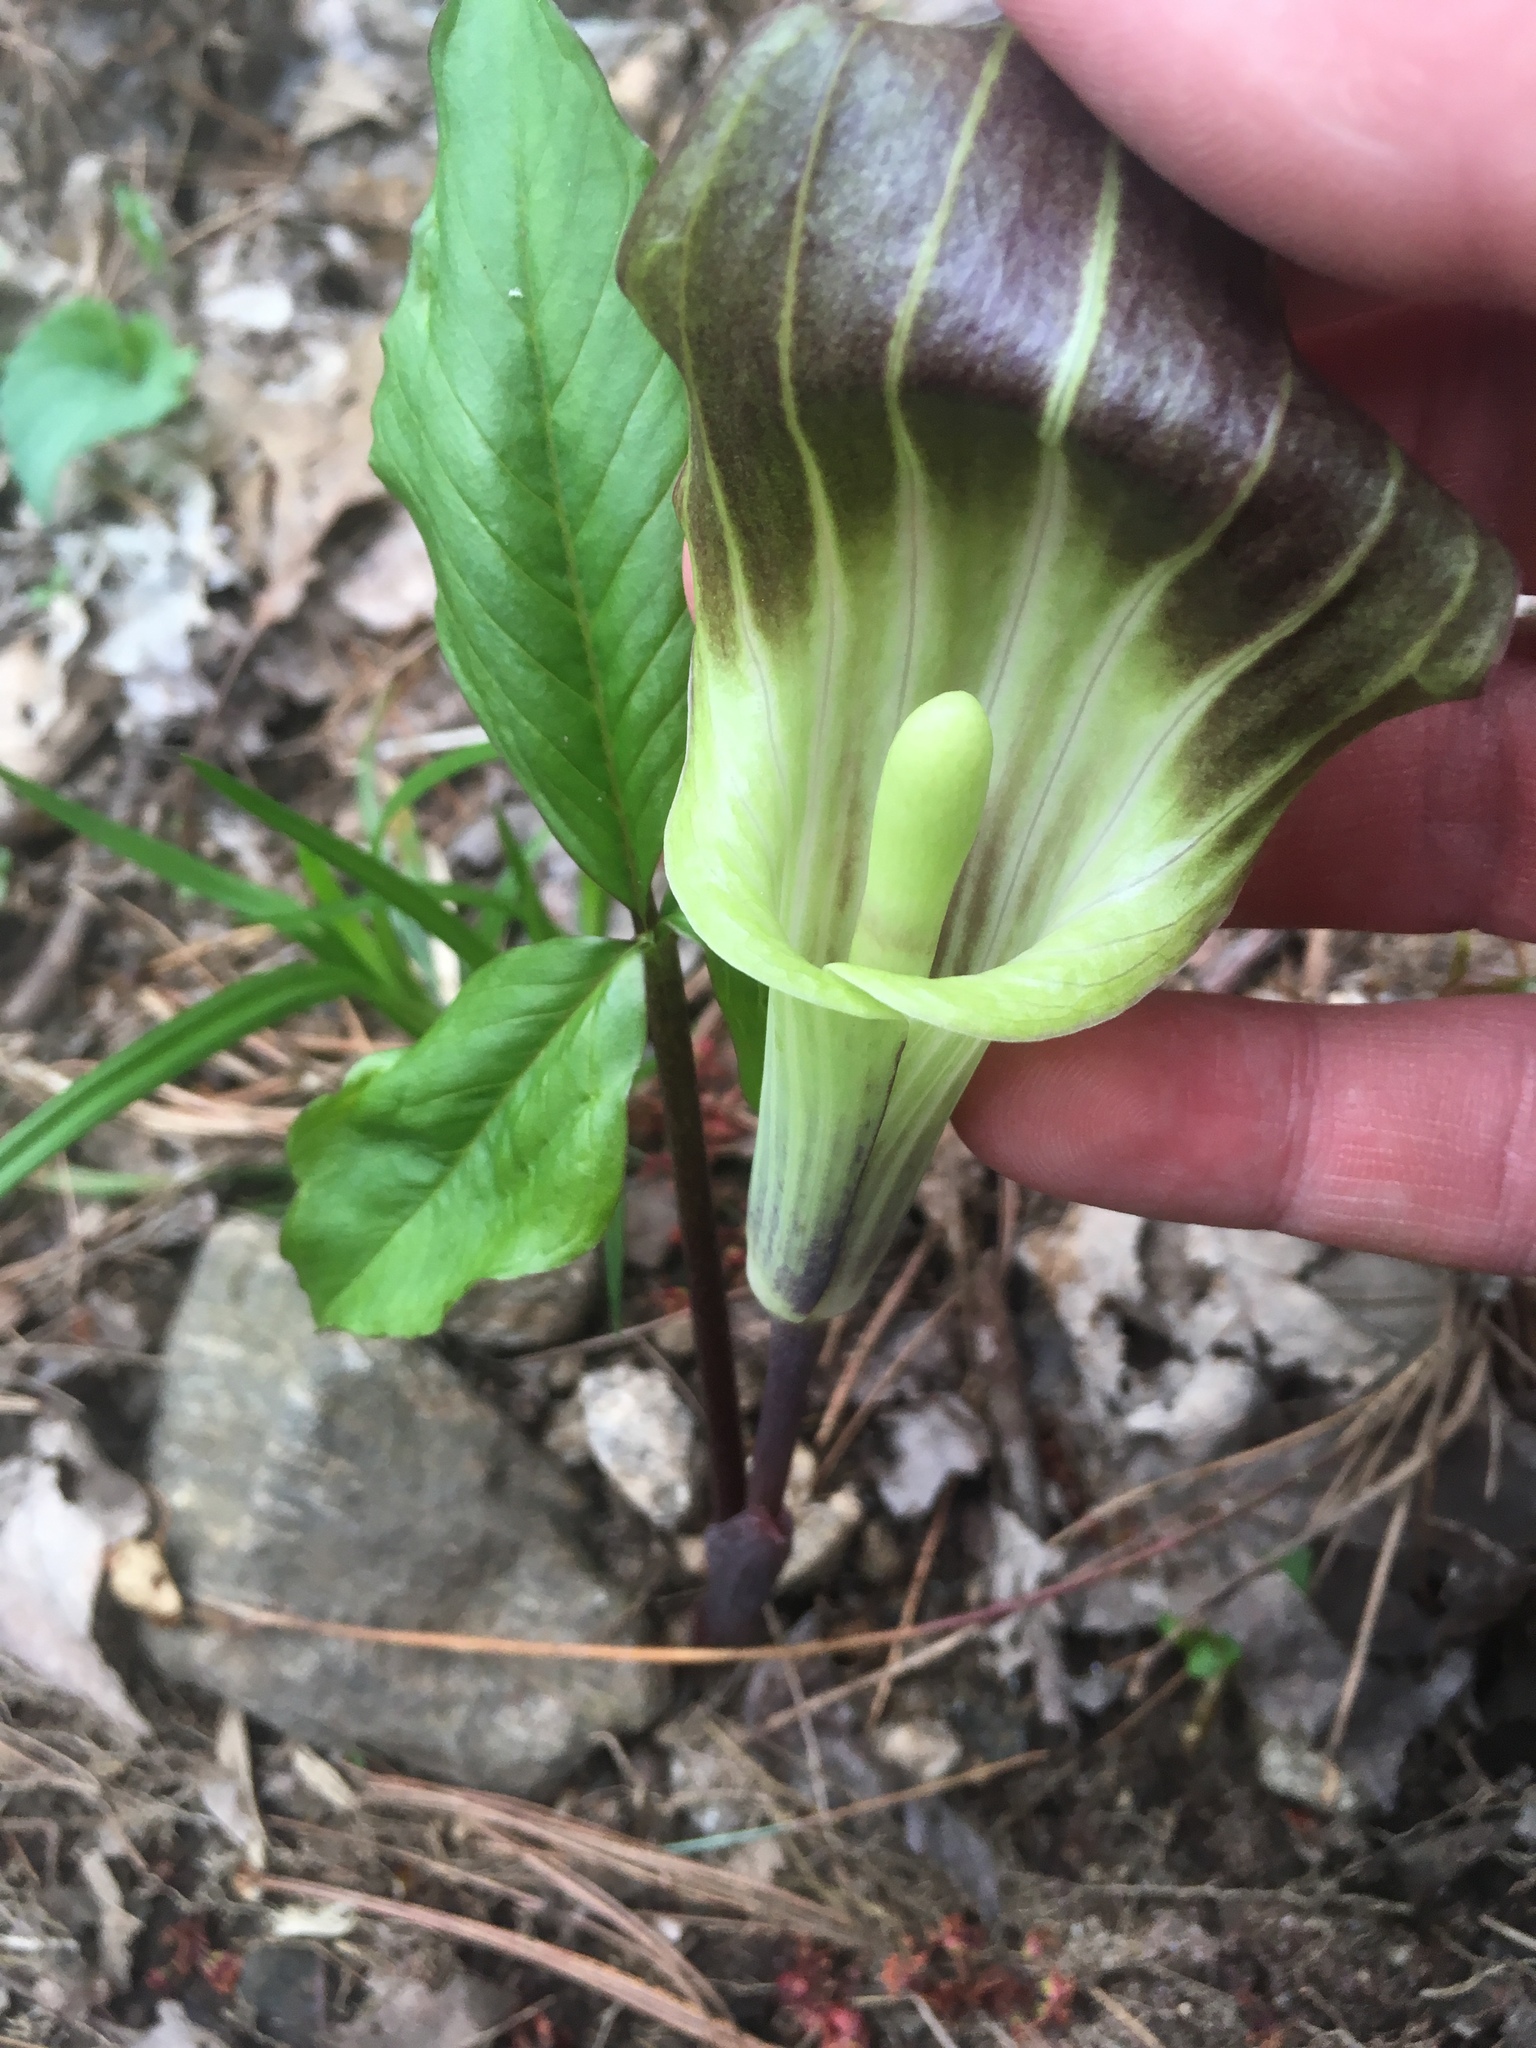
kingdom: Plantae
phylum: Tracheophyta
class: Liliopsida
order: Alismatales
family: Araceae
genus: Arisaema
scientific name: Arisaema triphyllum
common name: Jack-in-the-pulpit
